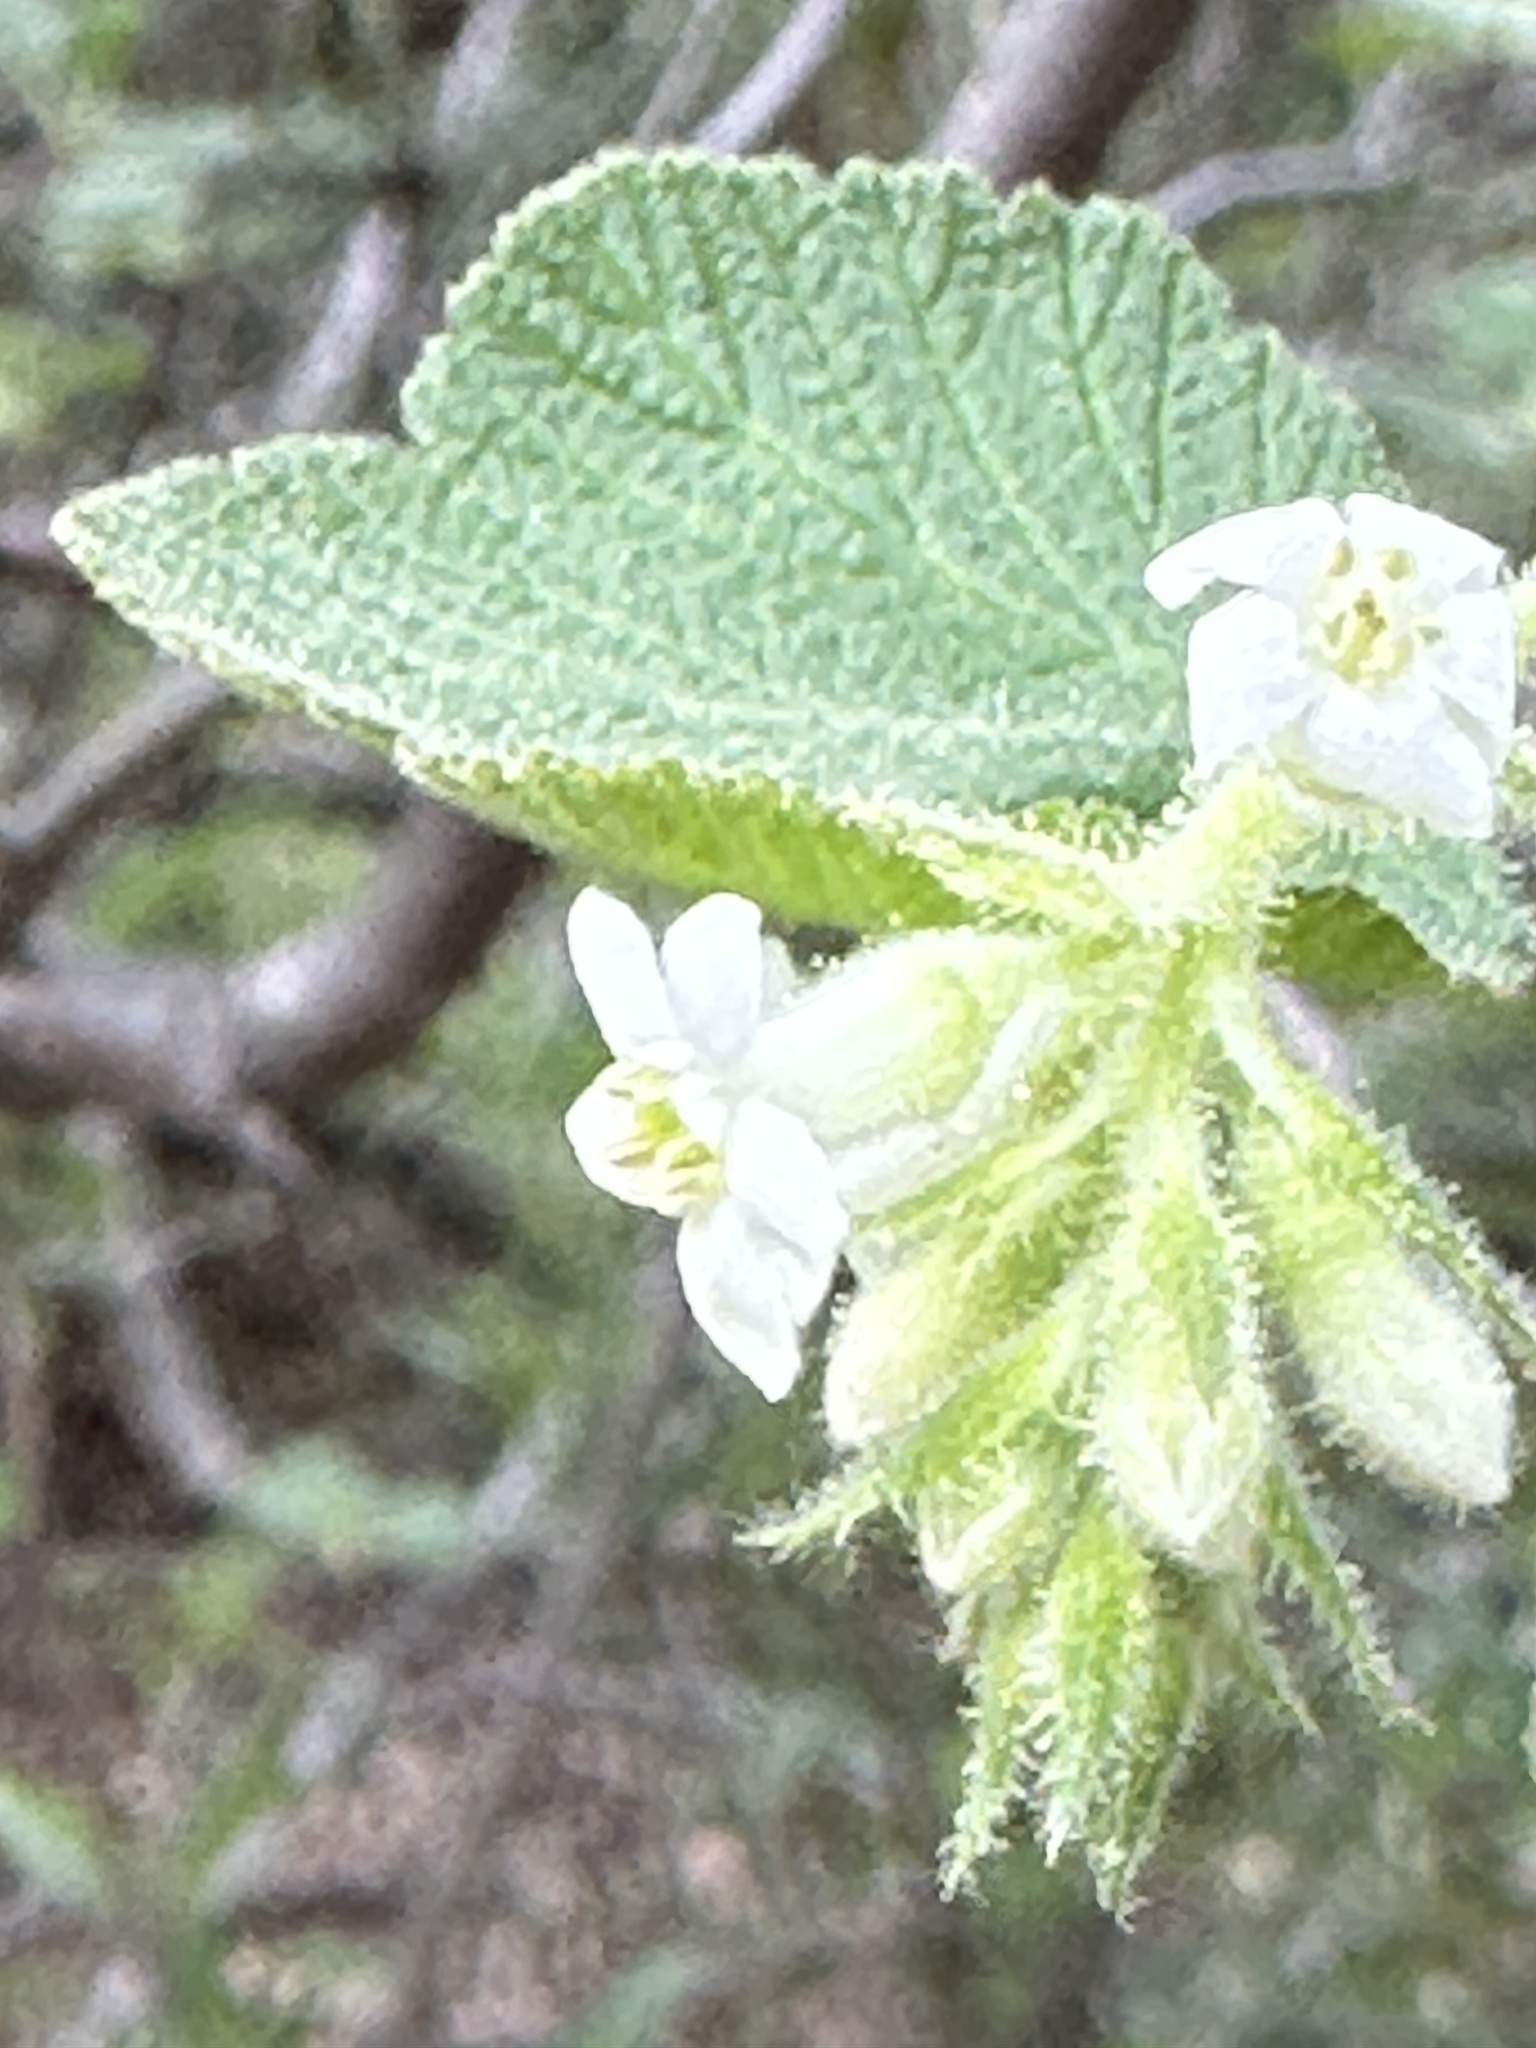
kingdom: Plantae
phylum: Tracheophyta
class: Magnoliopsida
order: Saxifragales
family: Grossulariaceae
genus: Ribes
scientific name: Ribes indecorum
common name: White-flower currant
